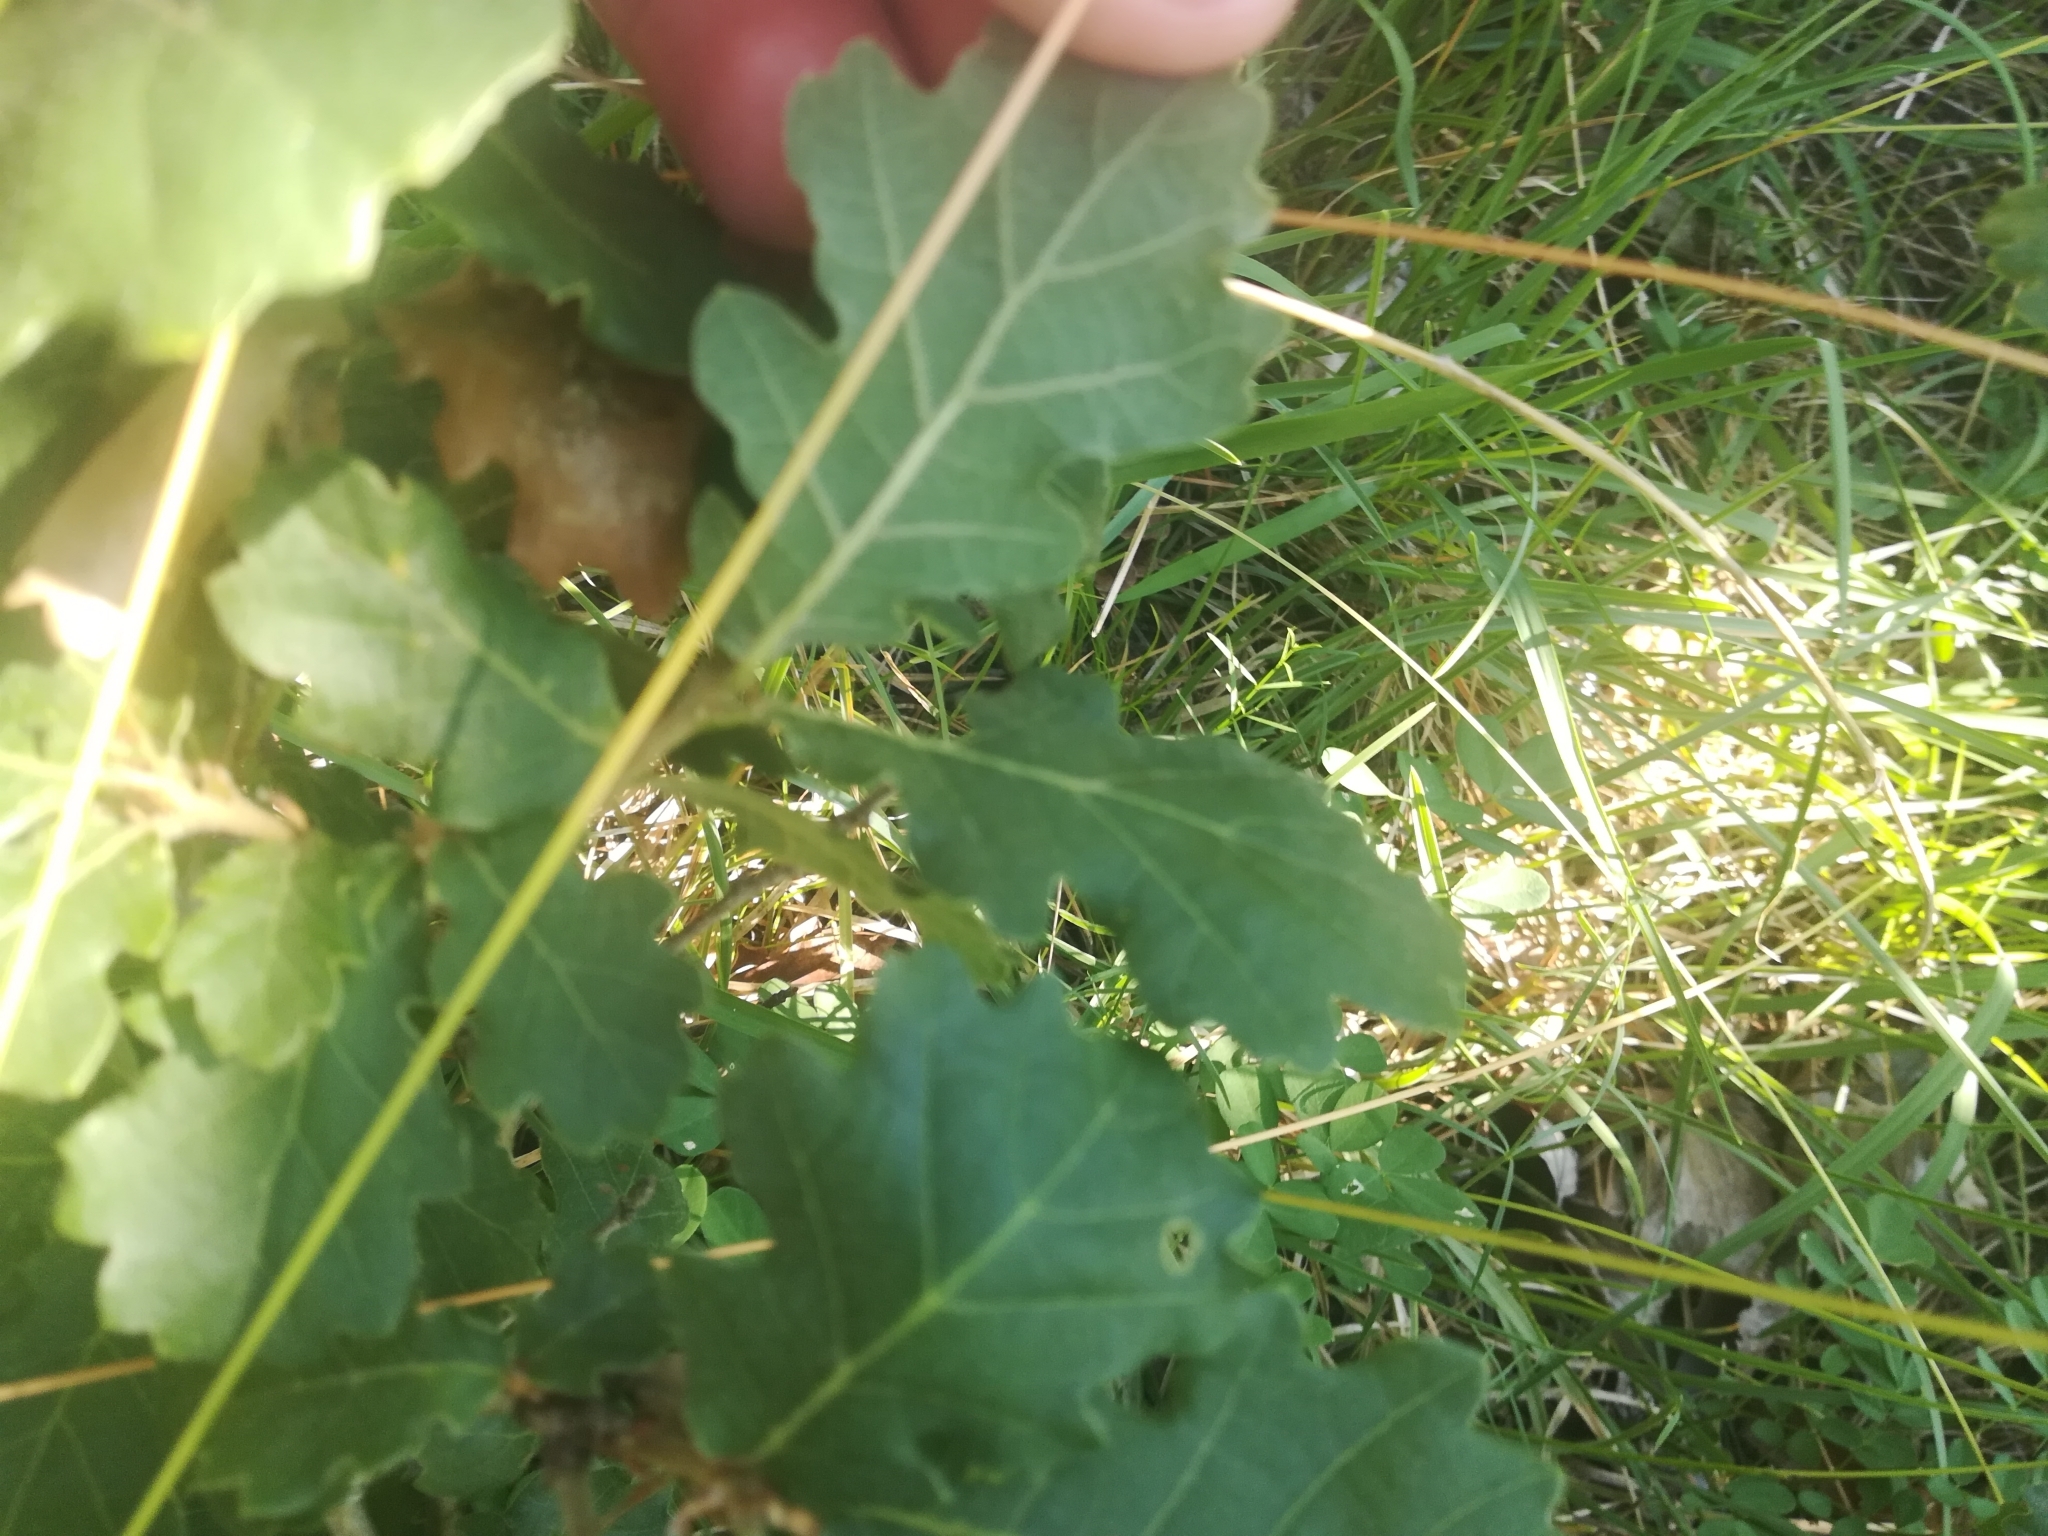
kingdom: Plantae
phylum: Tracheophyta
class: Magnoliopsida
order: Fagales
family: Fagaceae
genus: Quercus
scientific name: Quercus pubescens
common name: Downy oak
